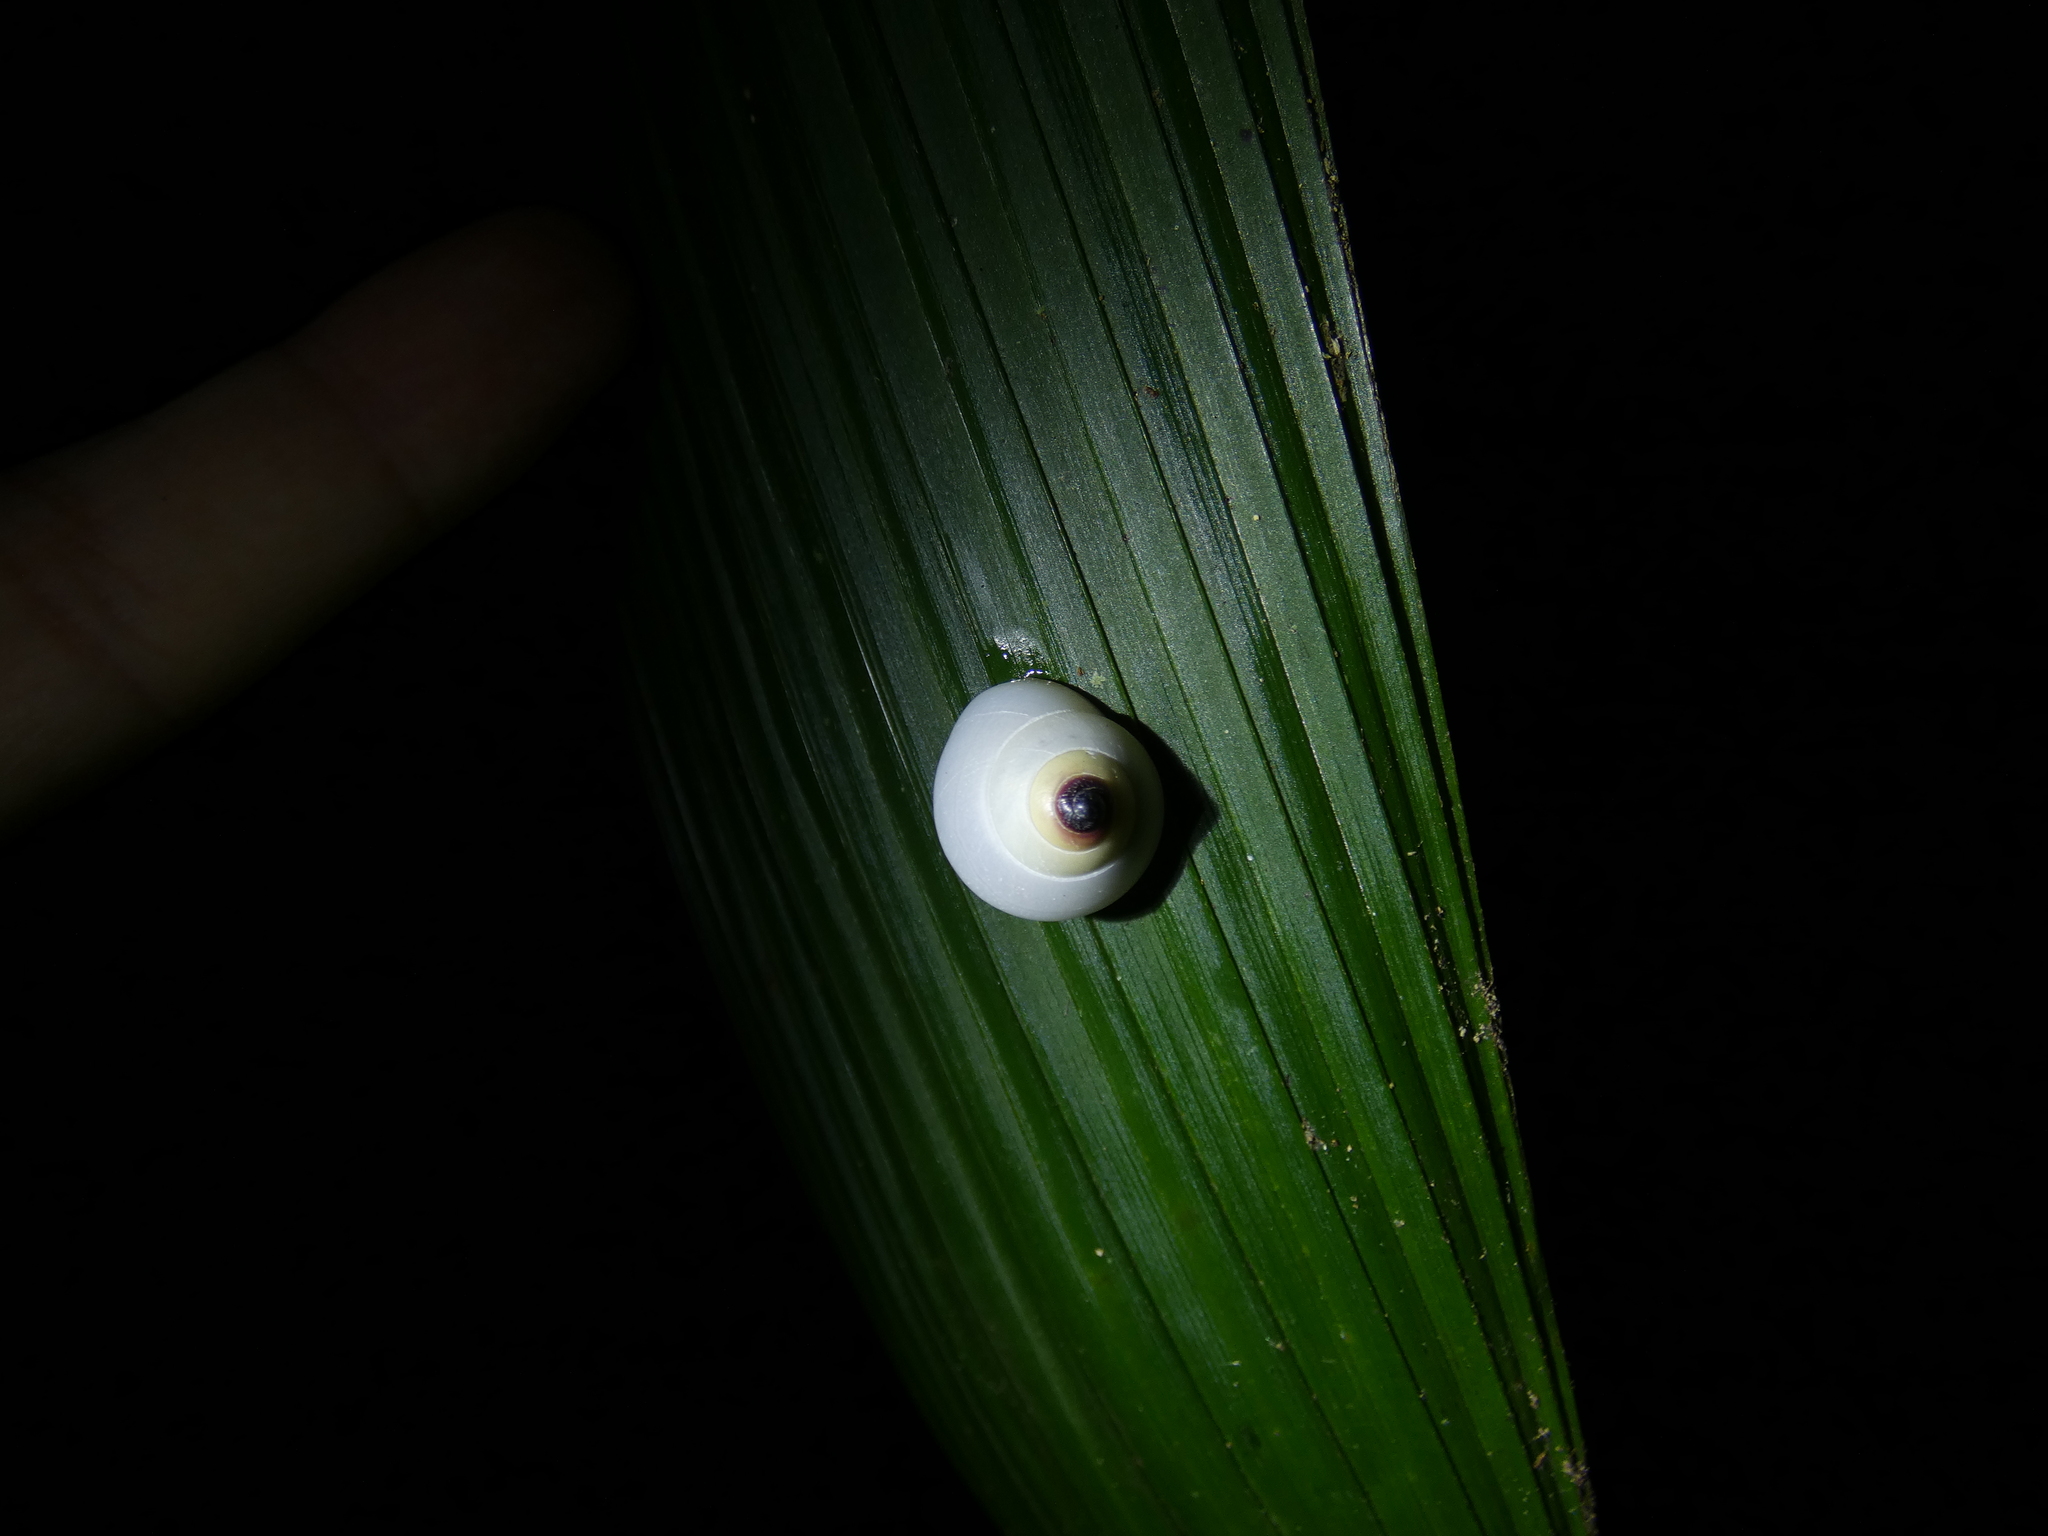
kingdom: Animalia
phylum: Mollusca
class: Gastropoda
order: Stylommatophora
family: Camaenidae
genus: Noctepuna
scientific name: Noctepuna cerea
